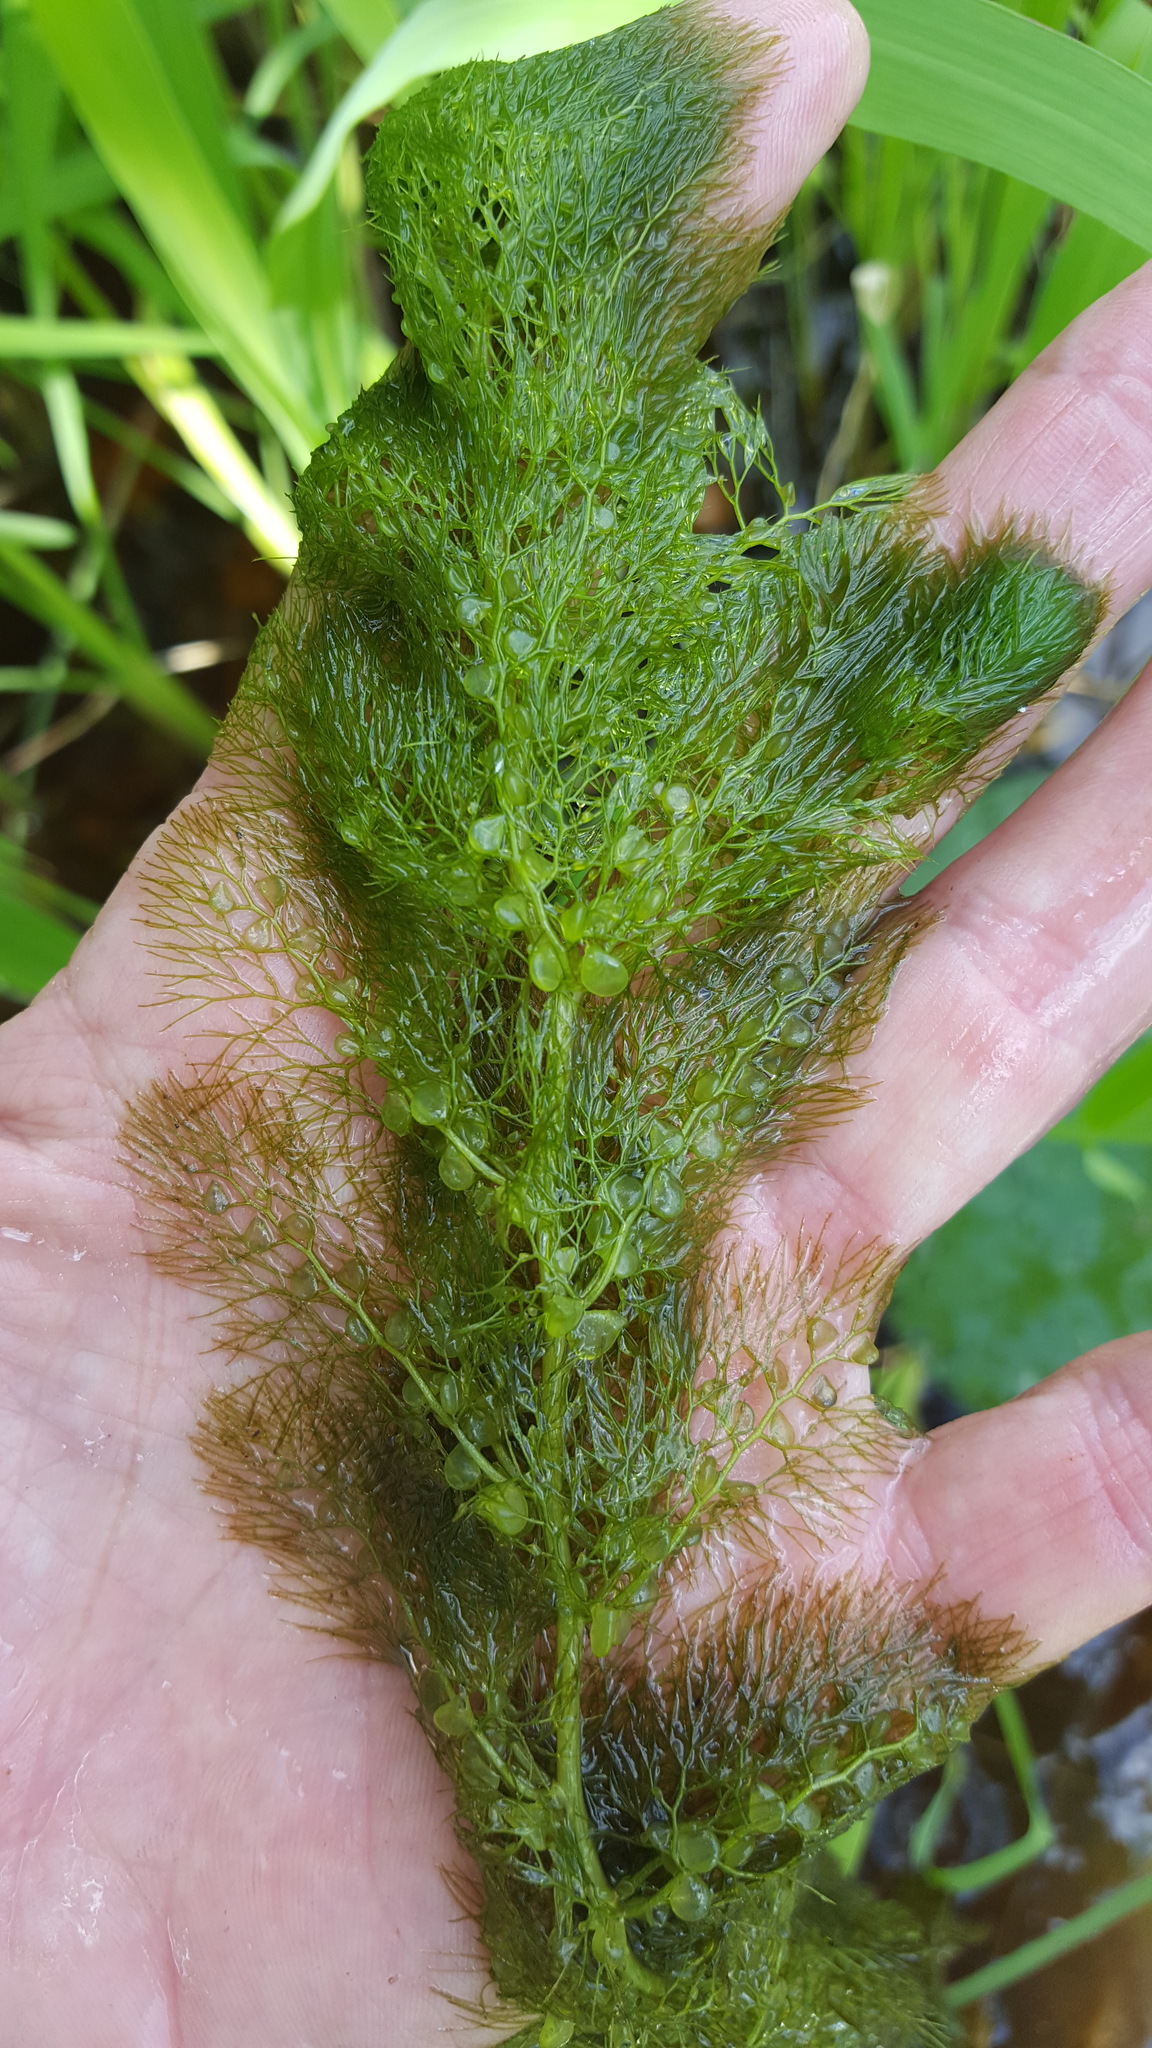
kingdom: Plantae
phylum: Tracheophyta
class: Magnoliopsida
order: Lamiales
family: Lentibulariaceae
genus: Utricularia
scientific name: Utricularia macrorhiza
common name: Common bladderwort
